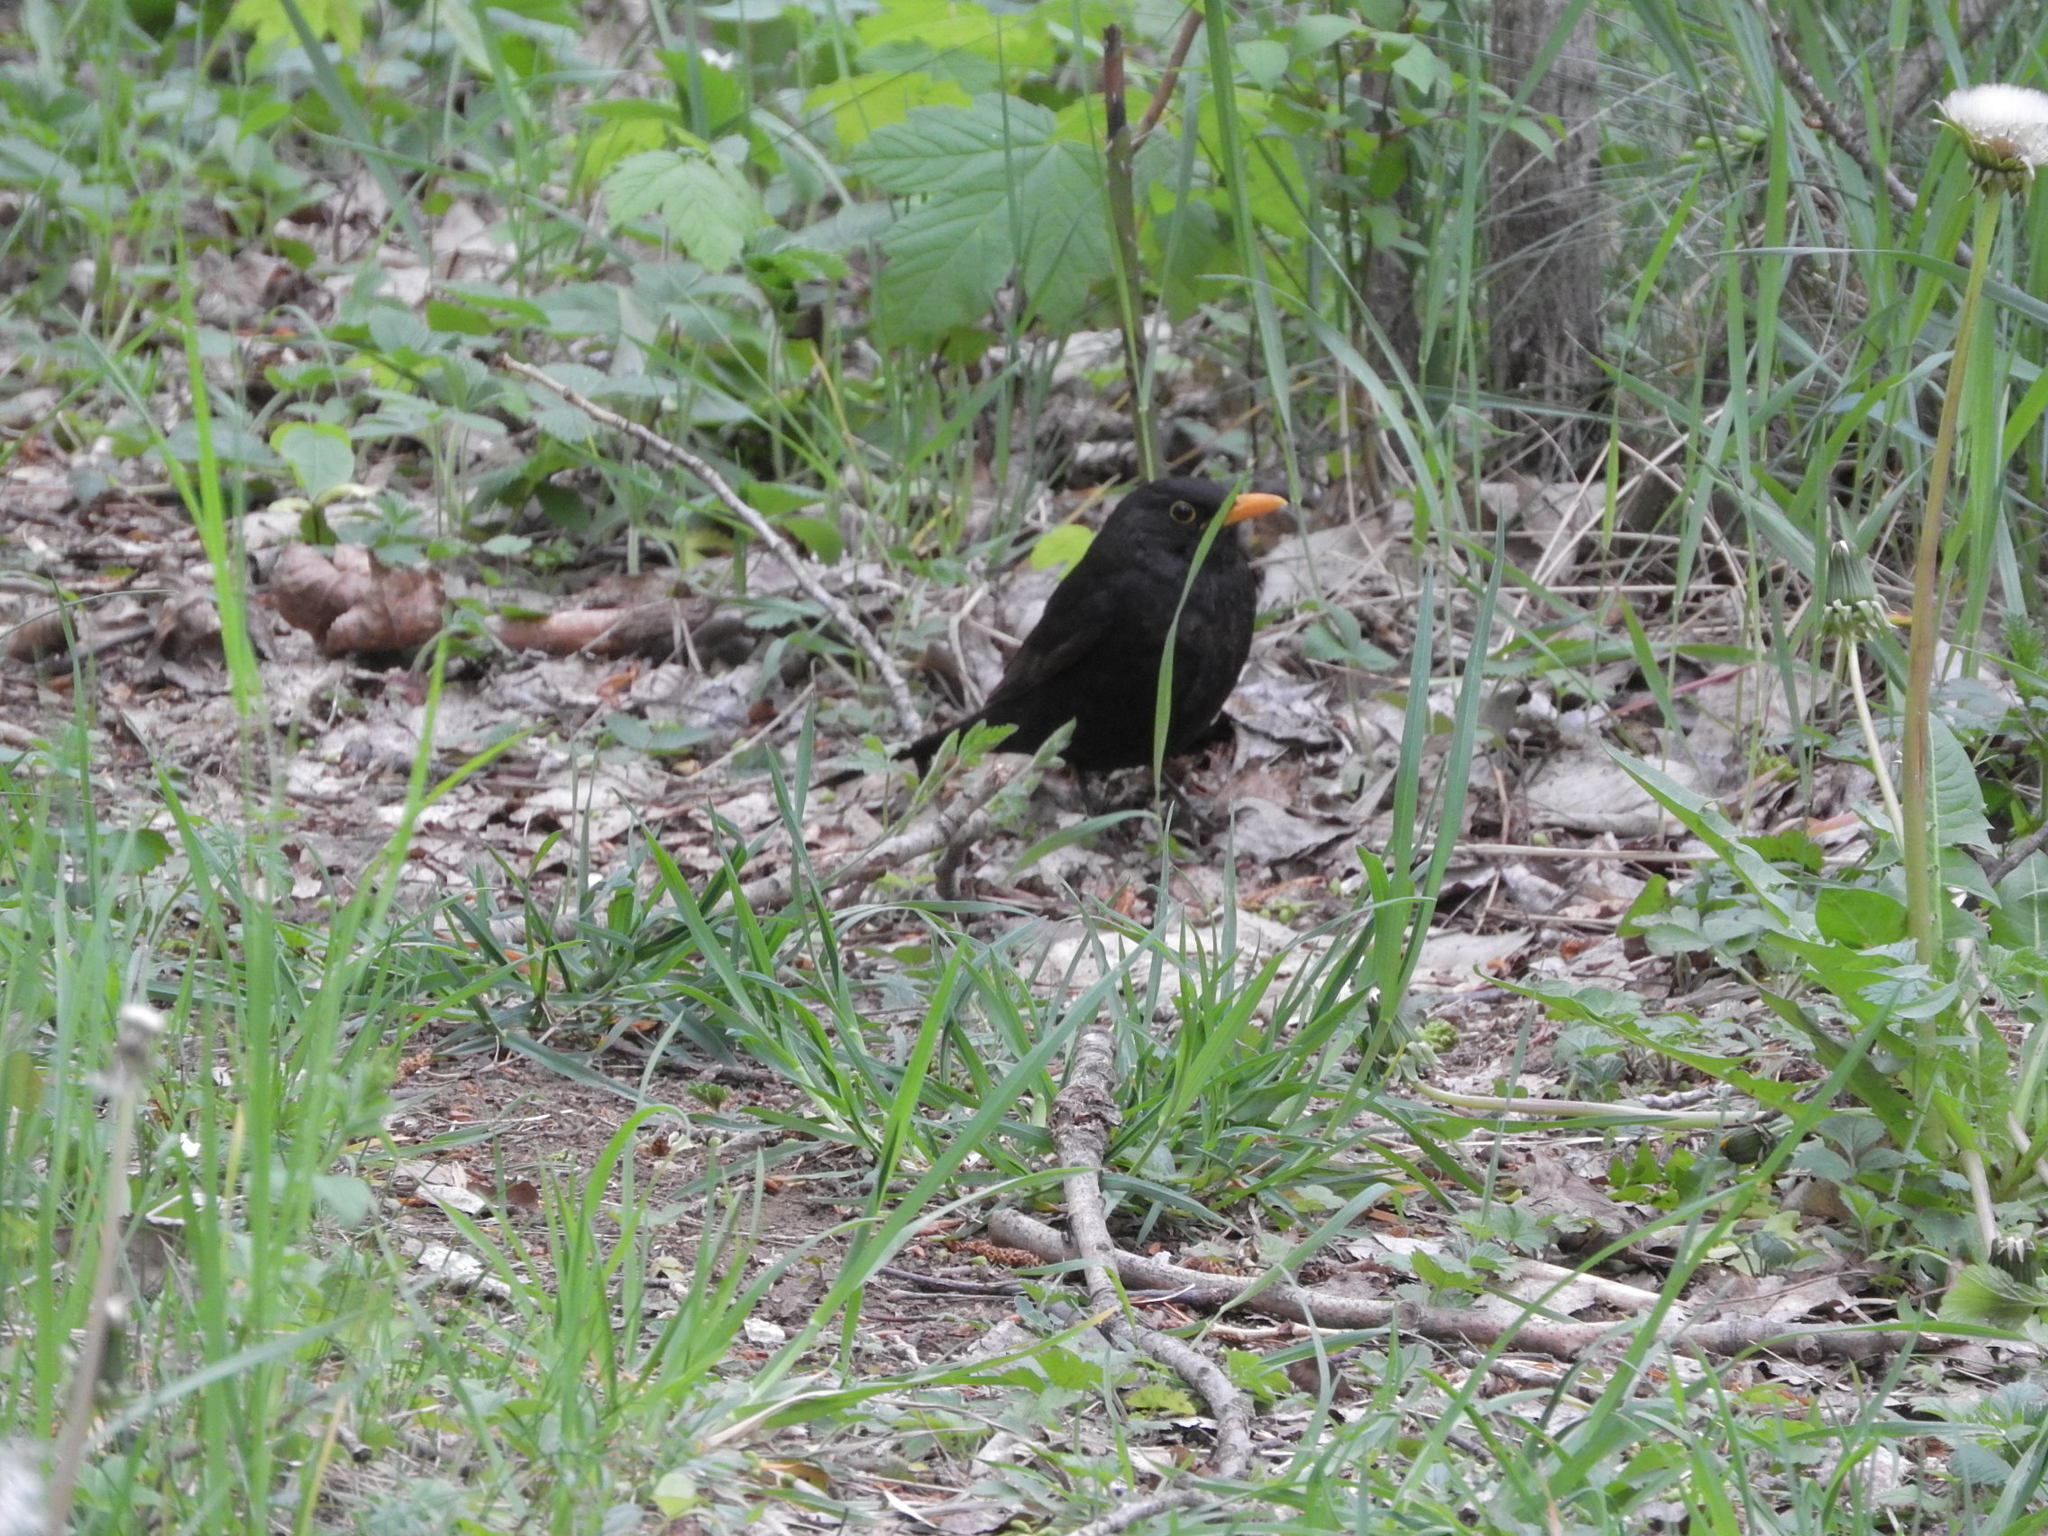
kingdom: Animalia
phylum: Chordata
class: Aves
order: Passeriformes
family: Turdidae
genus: Turdus
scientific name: Turdus merula
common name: Common blackbird
